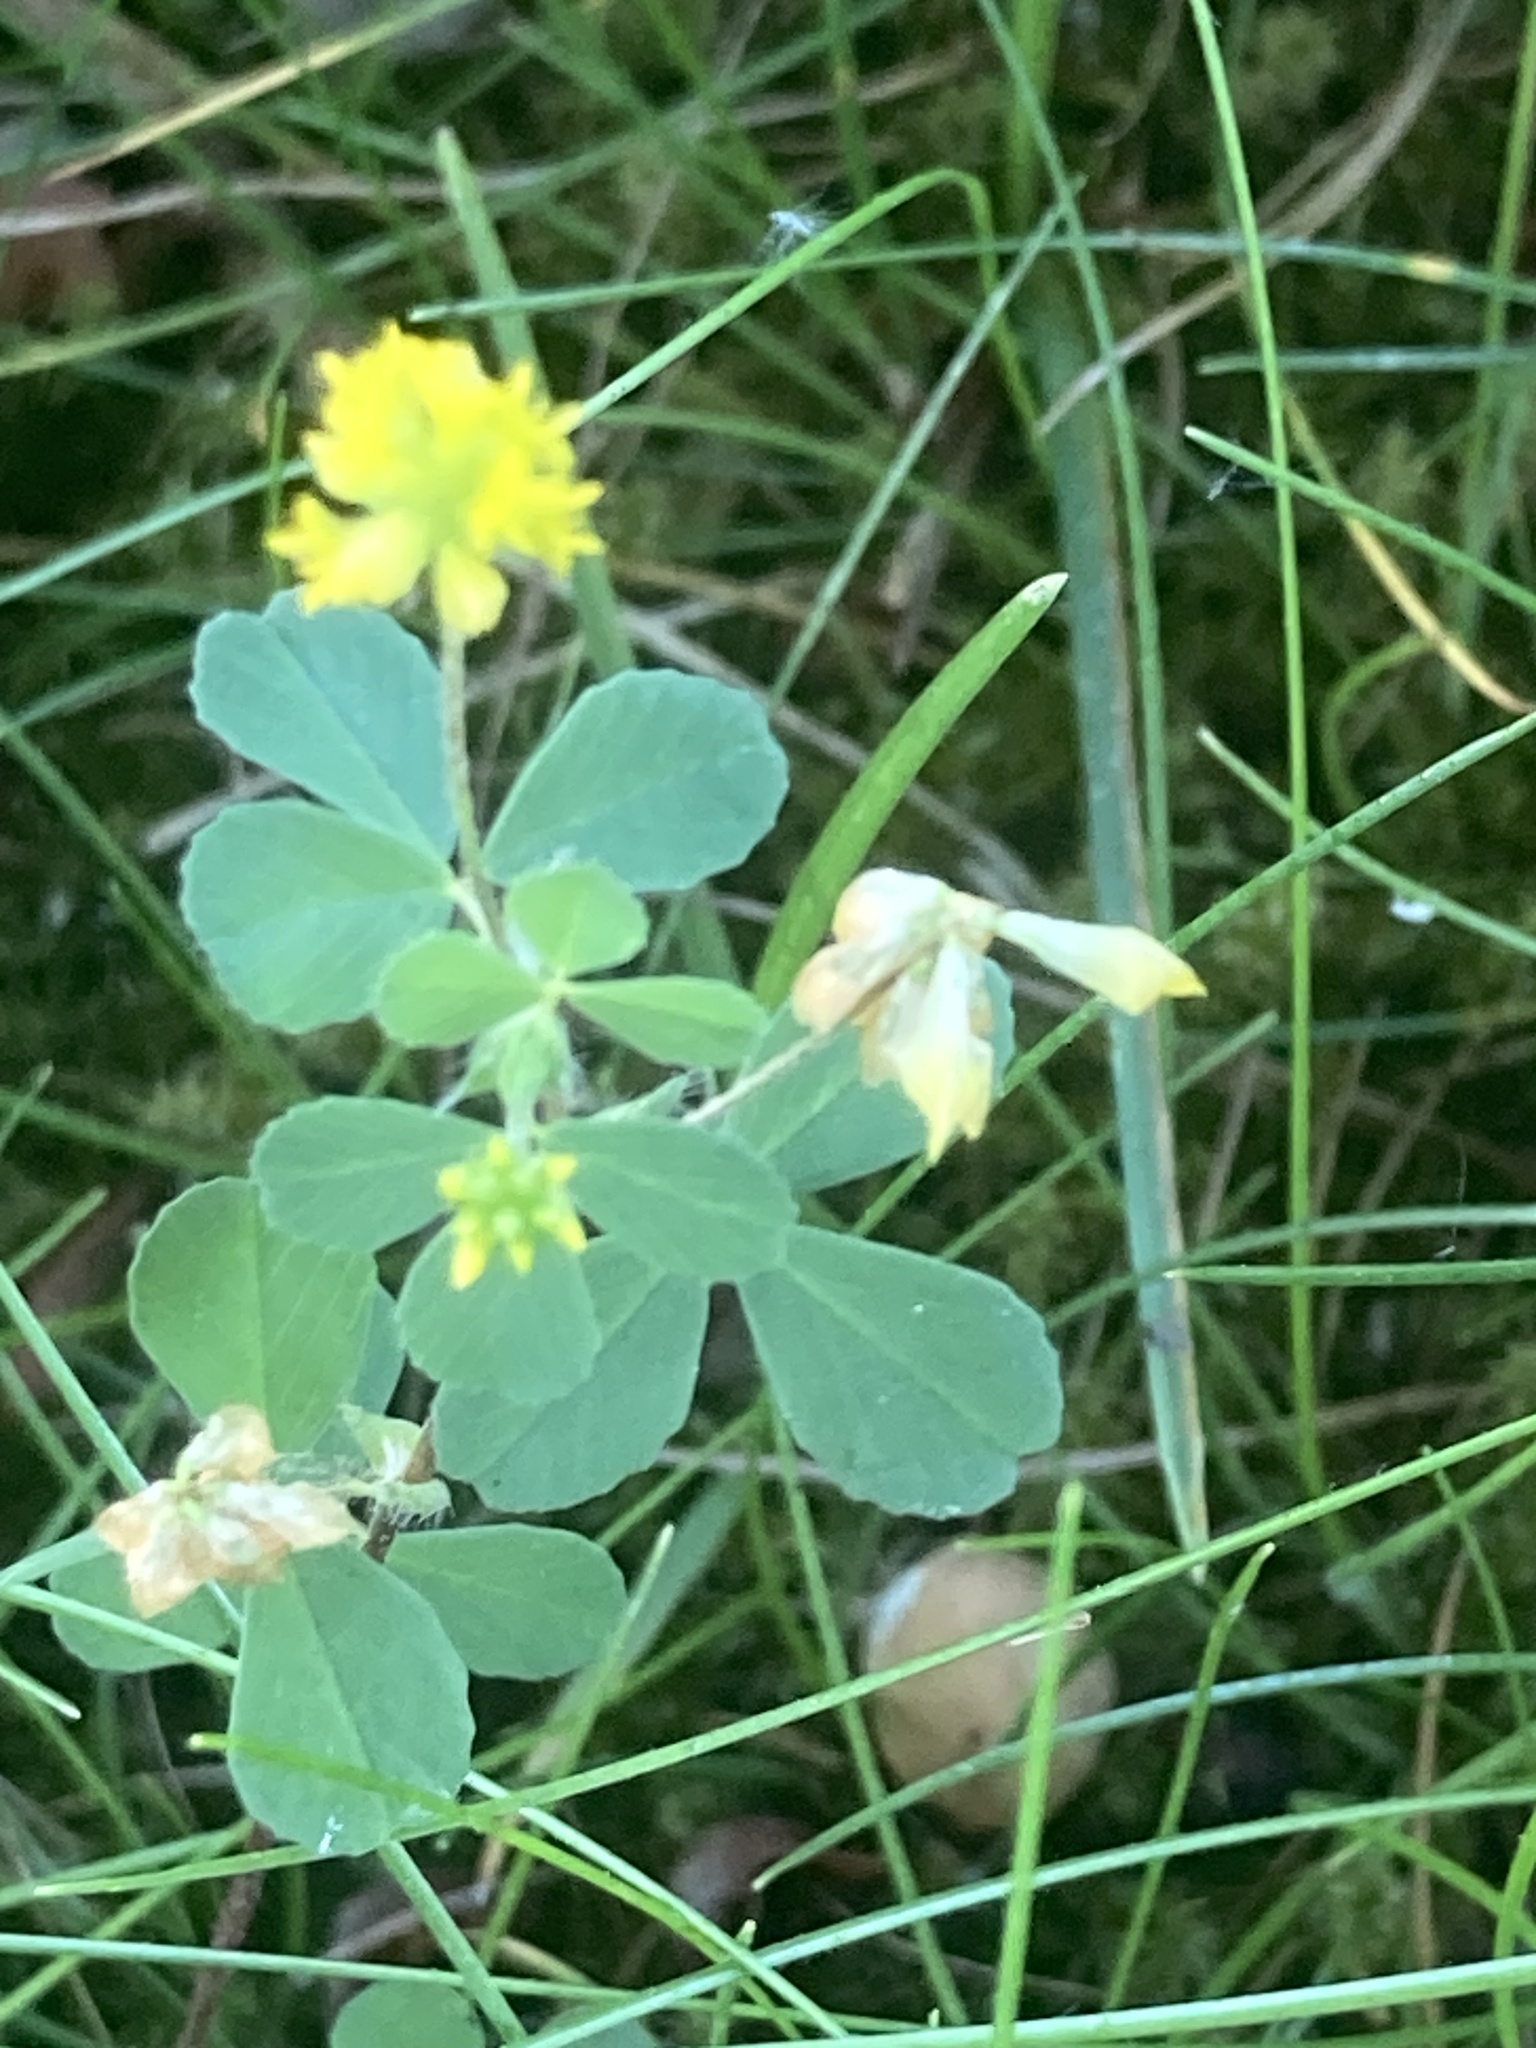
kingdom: Plantae
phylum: Tracheophyta
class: Magnoliopsida
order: Fabales
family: Fabaceae
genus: Trifolium
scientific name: Trifolium dubium
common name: Suckling clover
